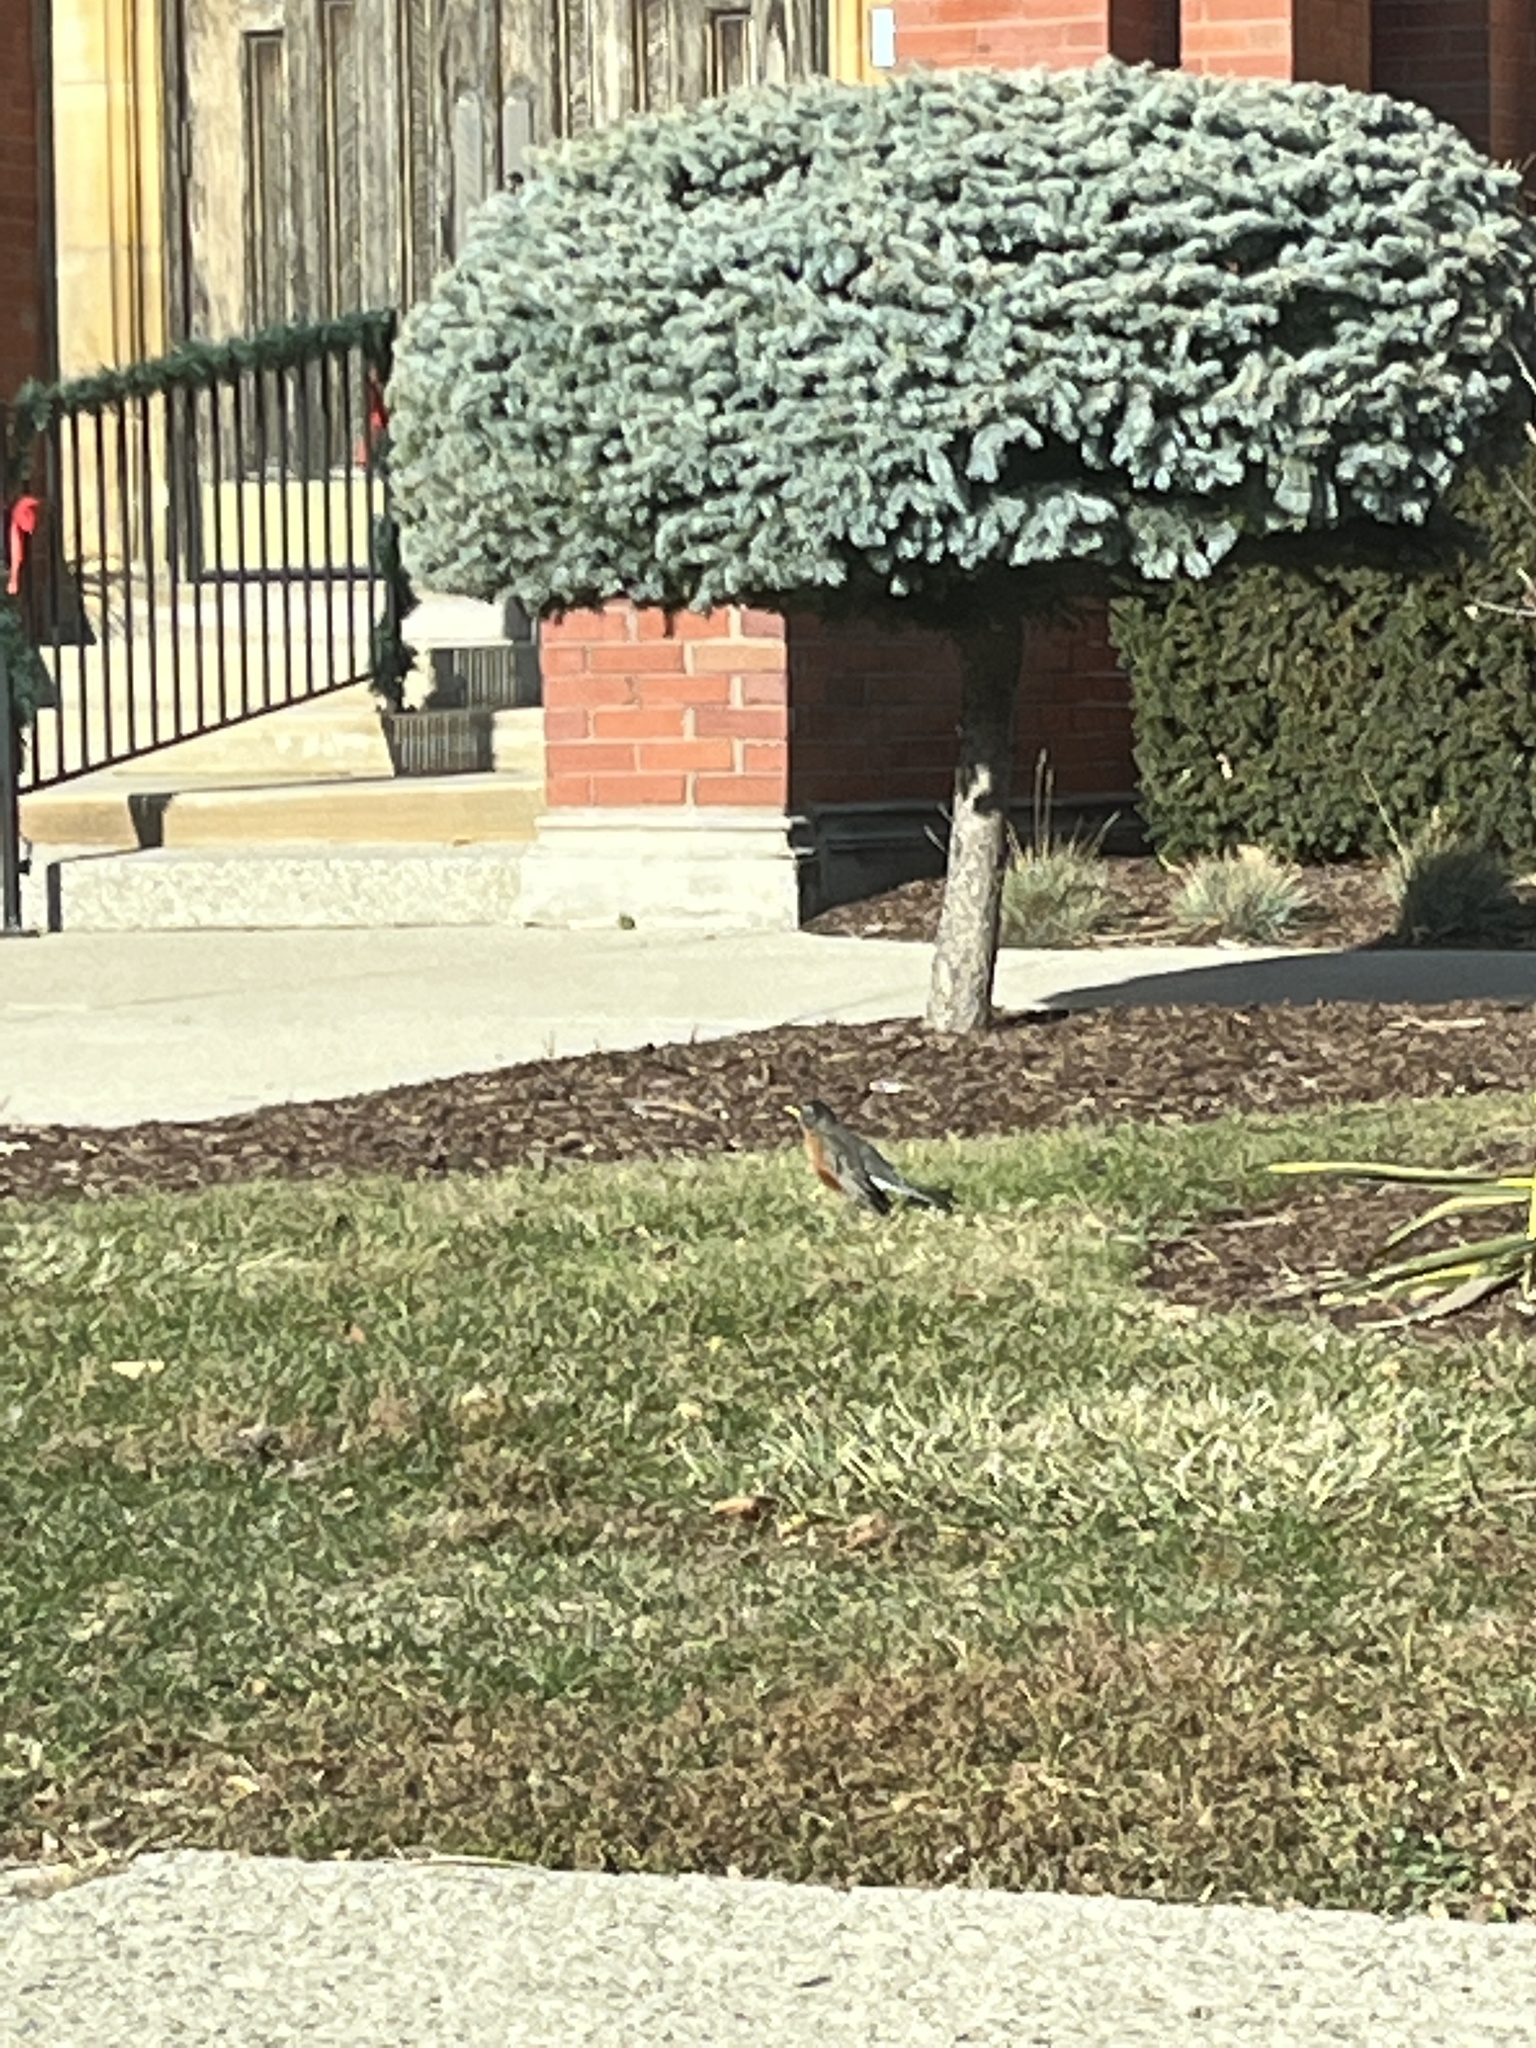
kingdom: Animalia
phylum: Chordata
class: Aves
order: Passeriformes
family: Turdidae
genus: Turdus
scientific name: Turdus migratorius
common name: American robin
